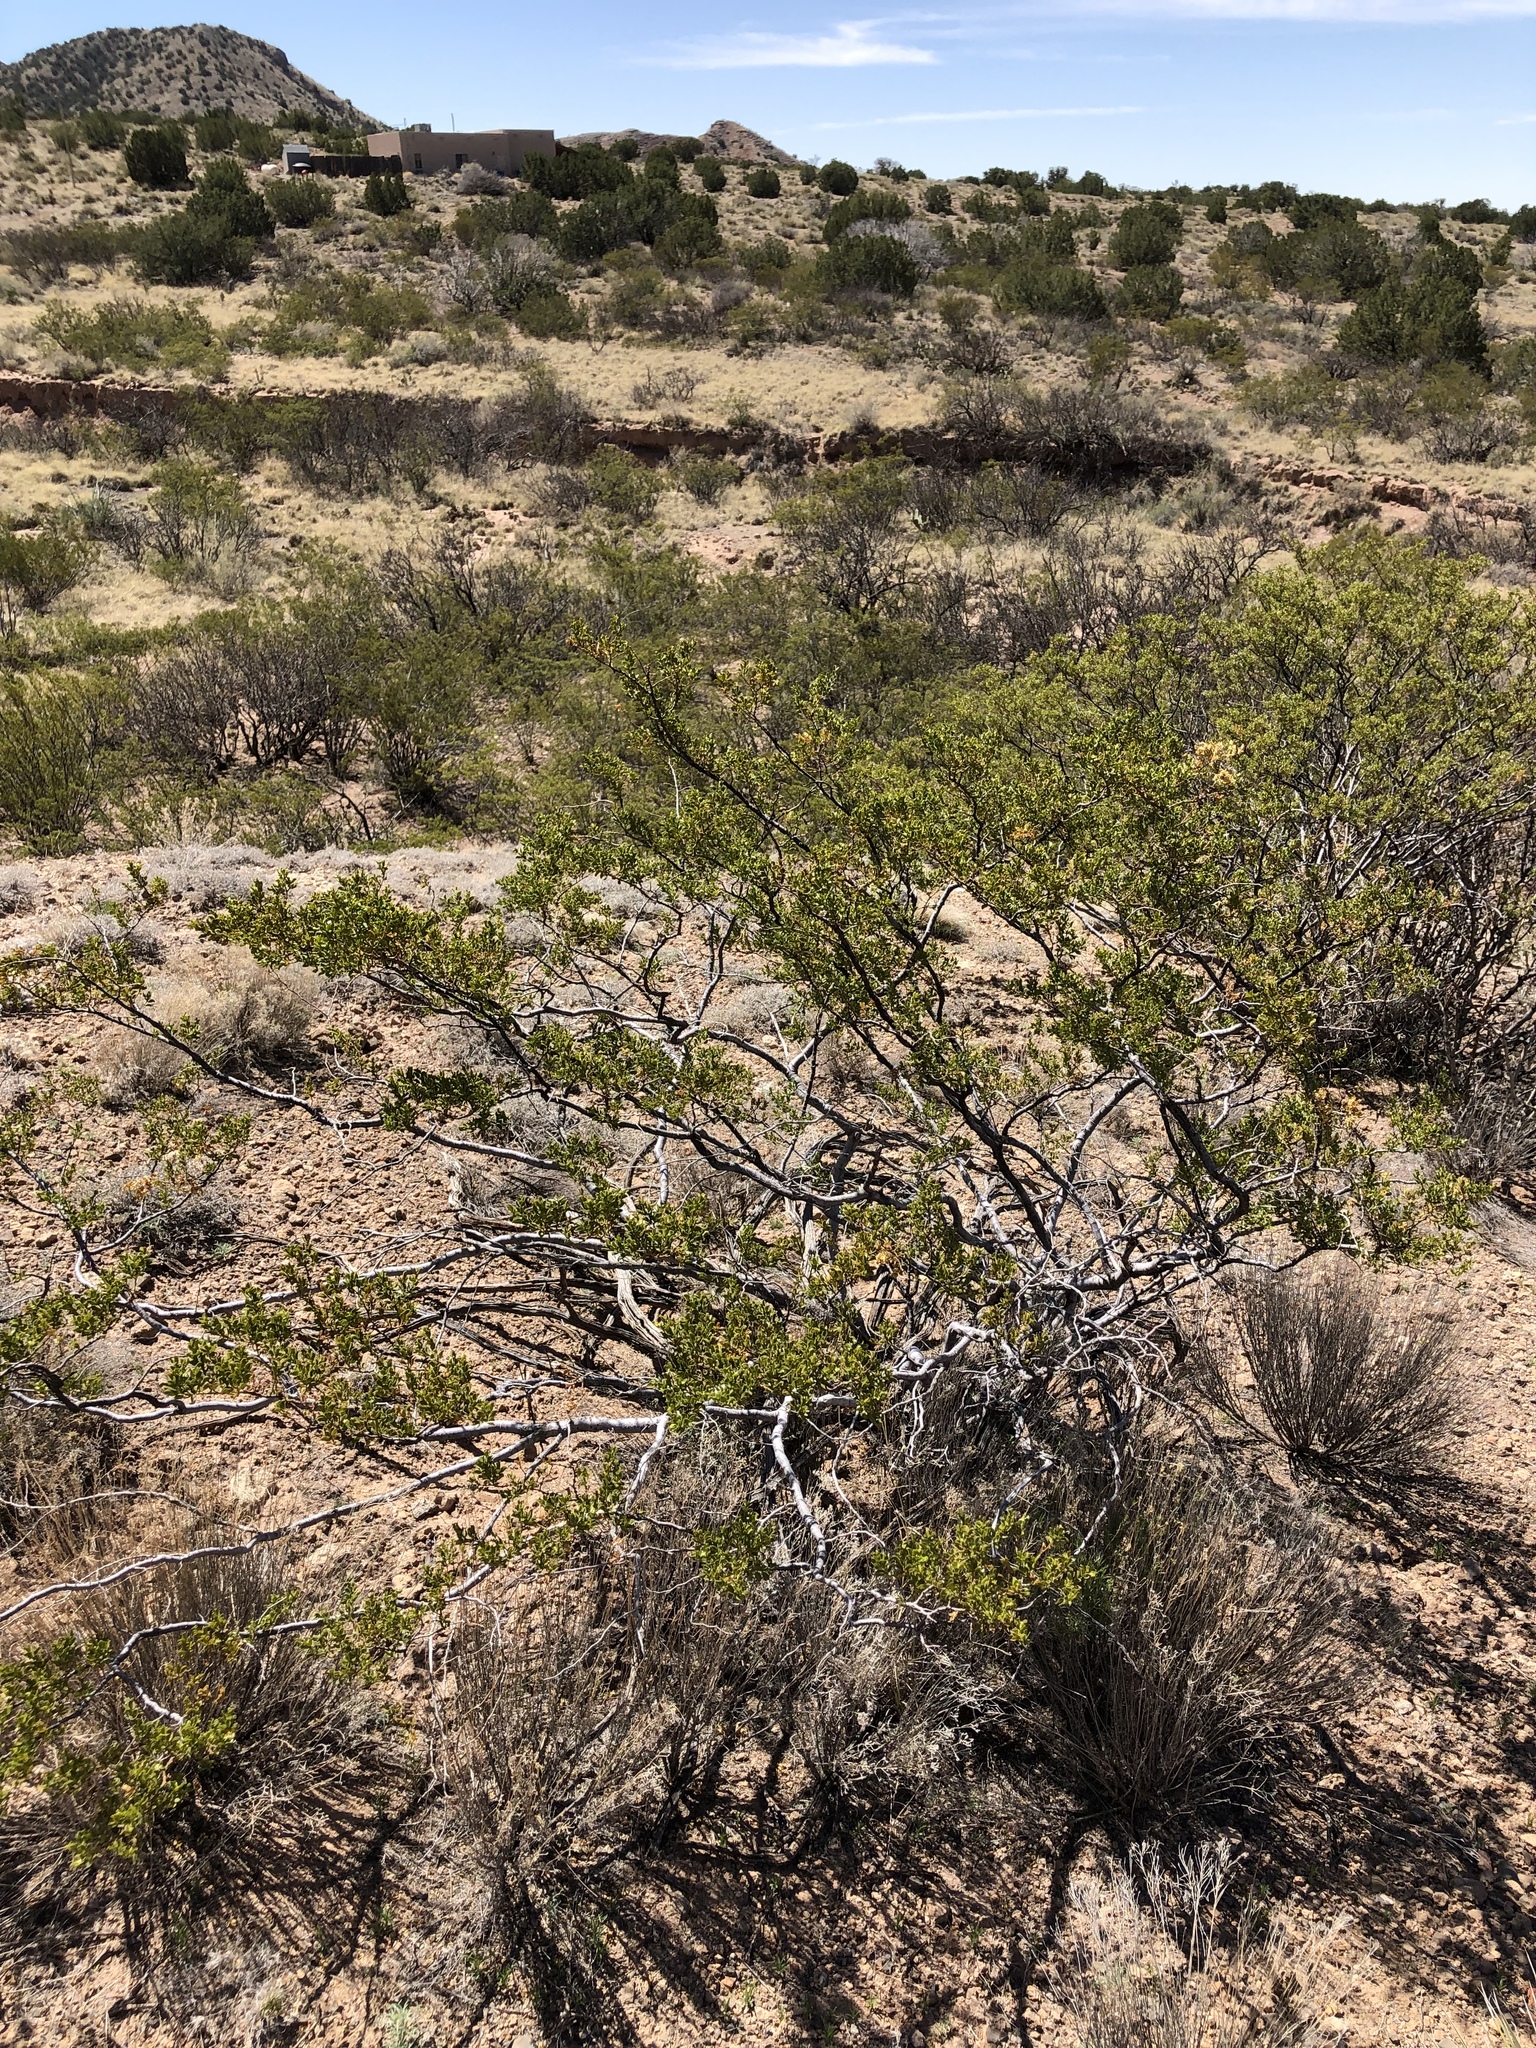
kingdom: Plantae
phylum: Tracheophyta
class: Magnoliopsida
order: Zygophyllales
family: Zygophyllaceae
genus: Larrea
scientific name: Larrea tridentata
